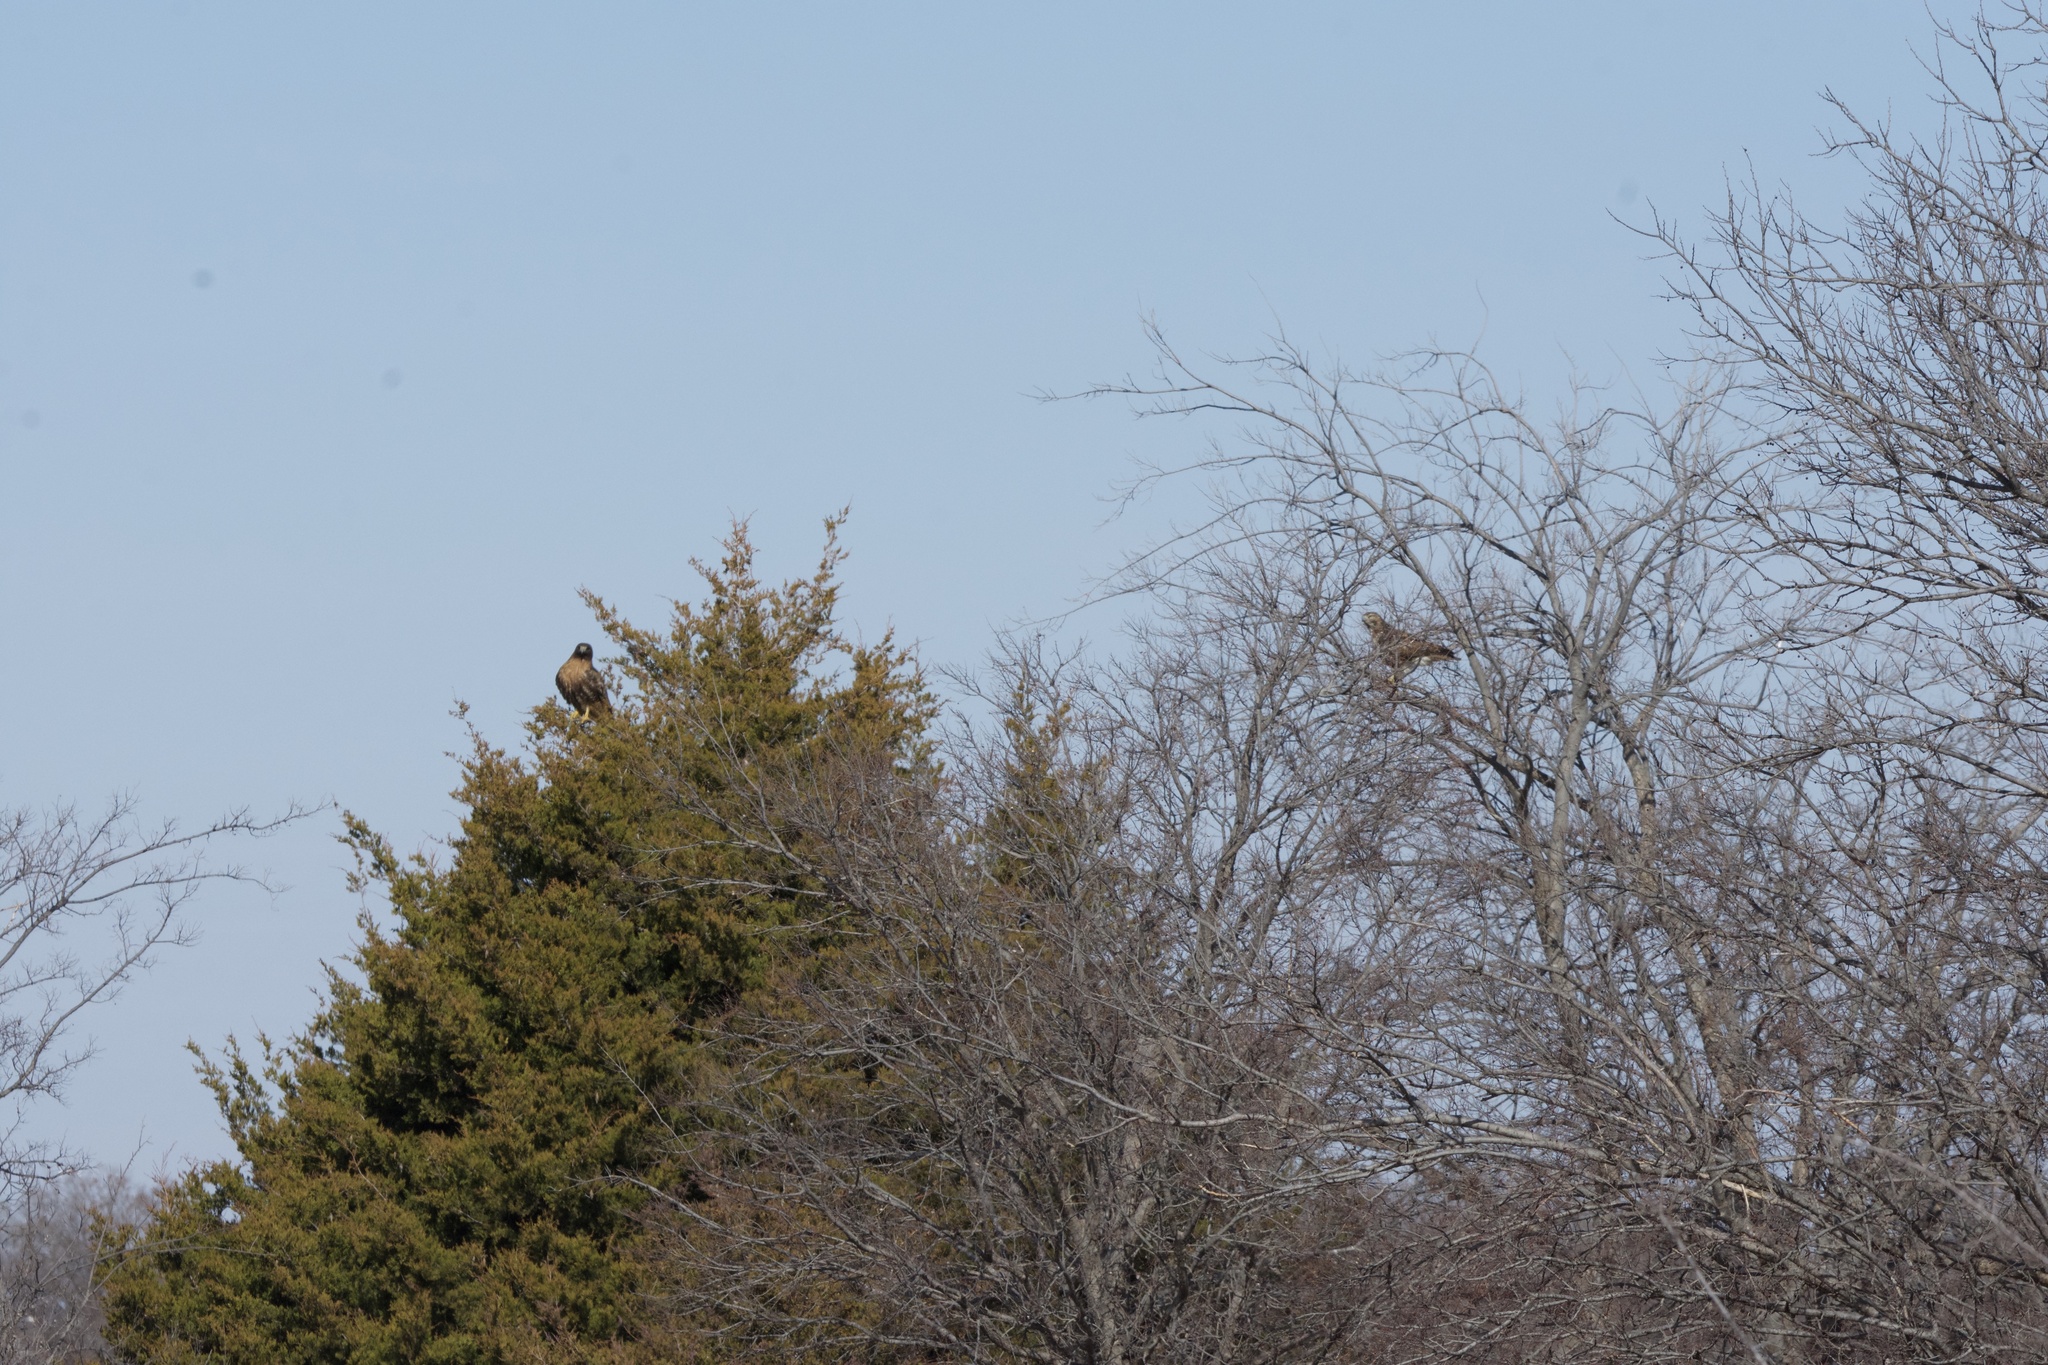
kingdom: Animalia
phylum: Chordata
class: Aves
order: Accipitriformes
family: Accipitridae
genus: Buteo
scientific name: Buteo jamaicensis
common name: Red-tailed hawk
